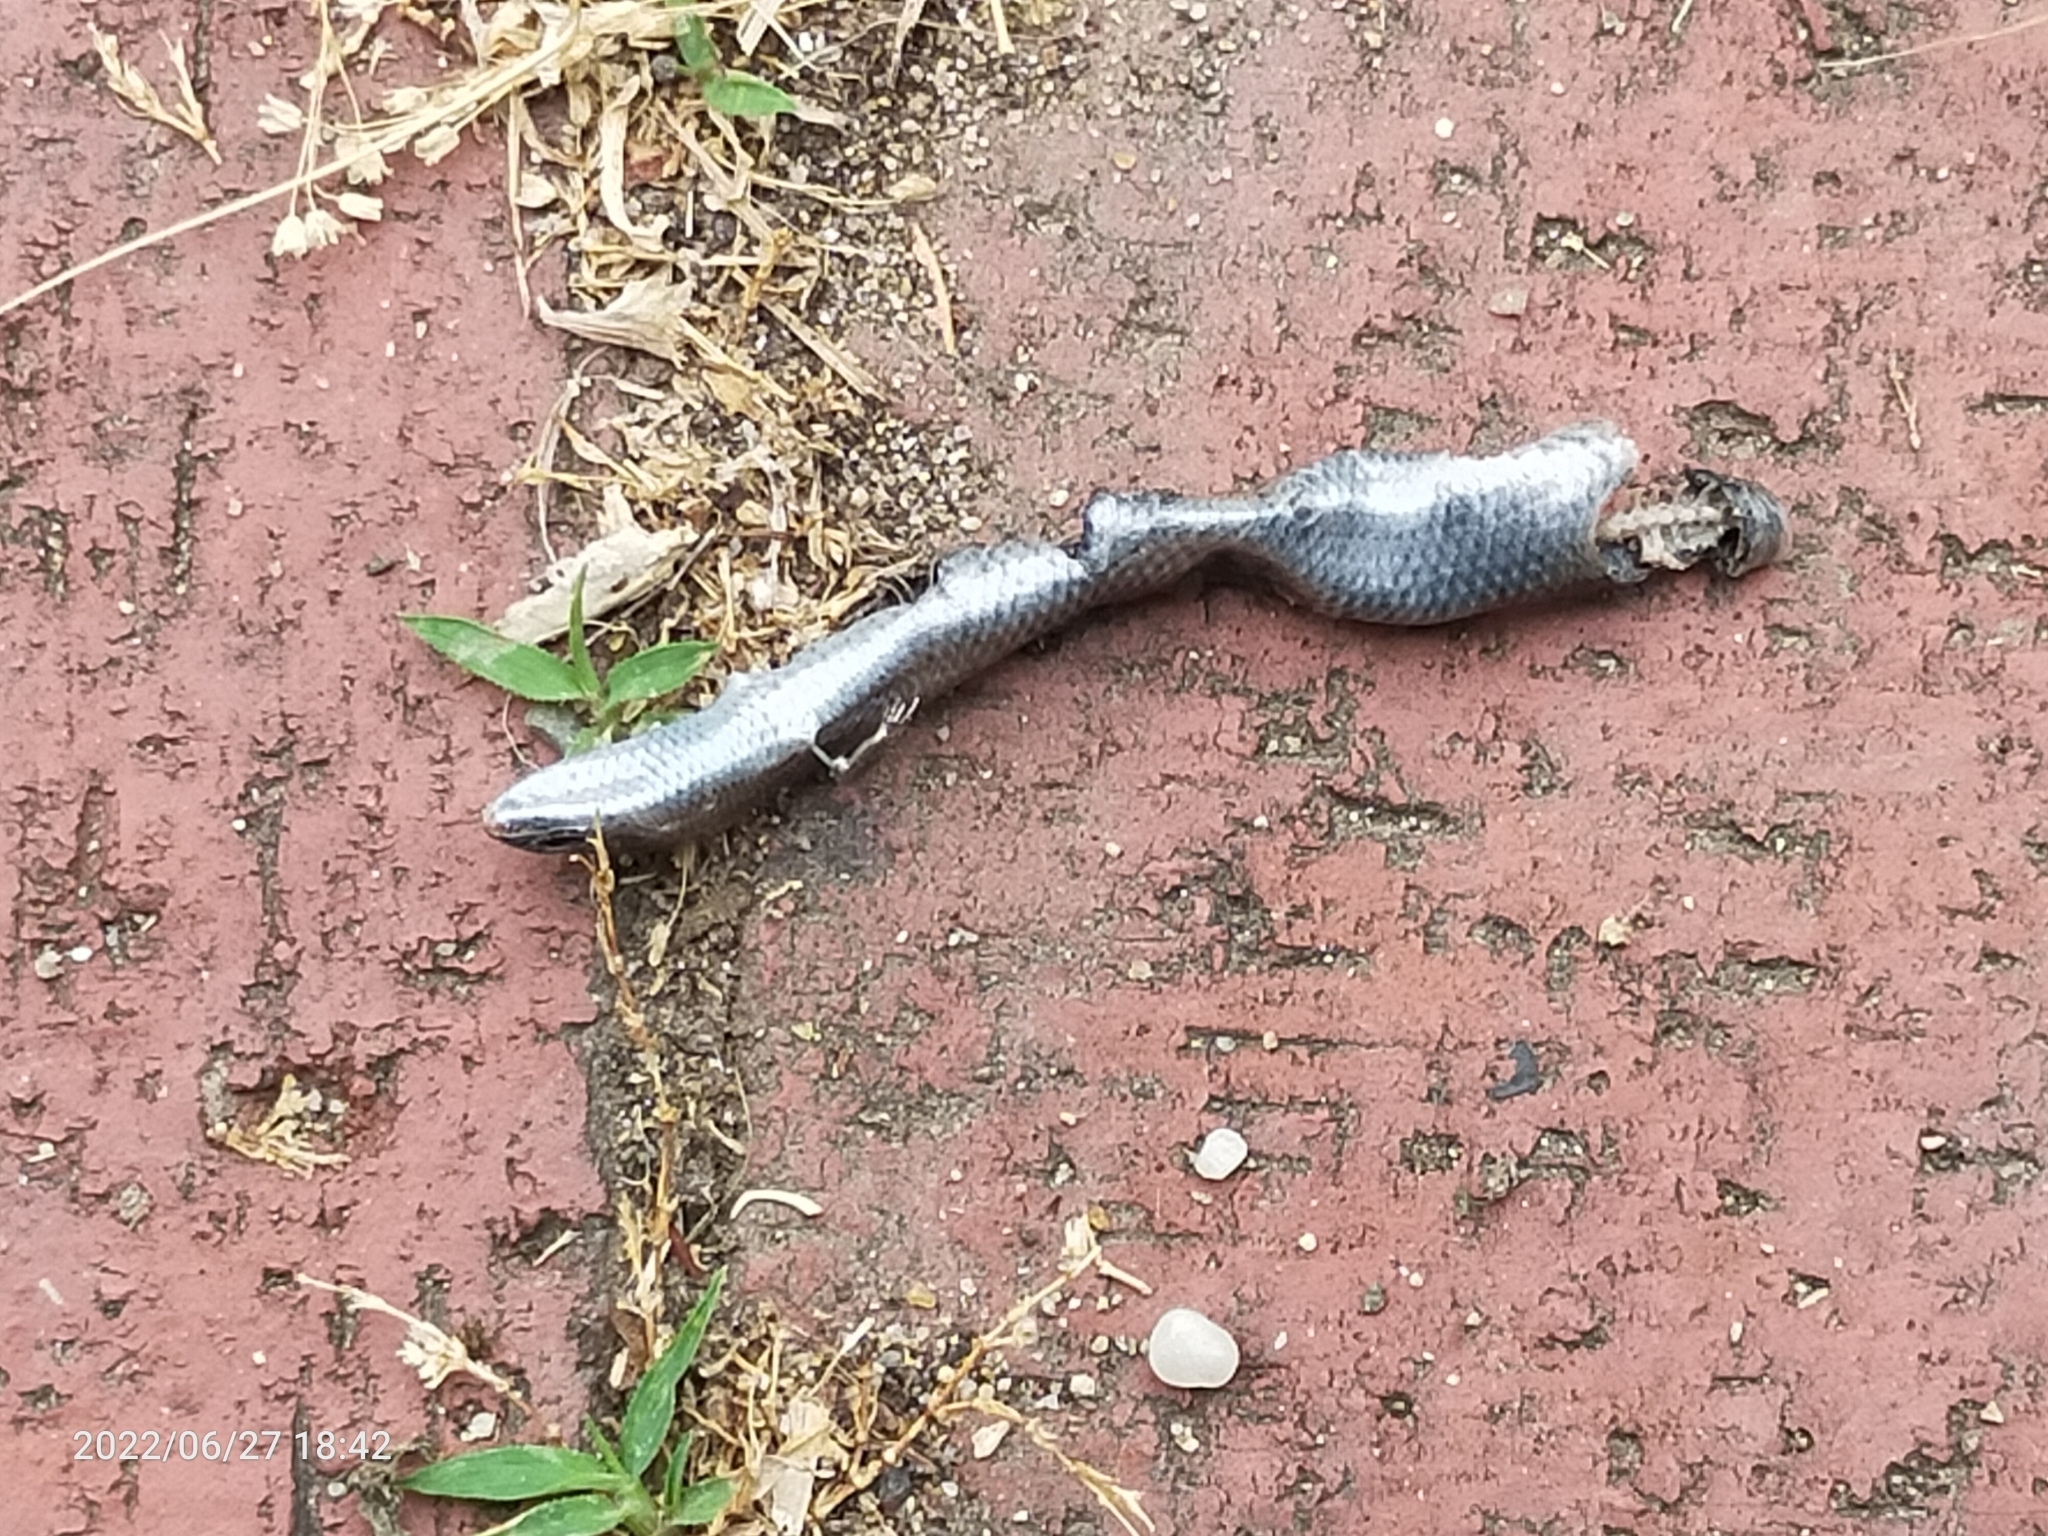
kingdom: Animalia
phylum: Chordata
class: Squamata
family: Scincidae
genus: Ablepharus
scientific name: Ablepharus kitaibelii
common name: Juniper skink
